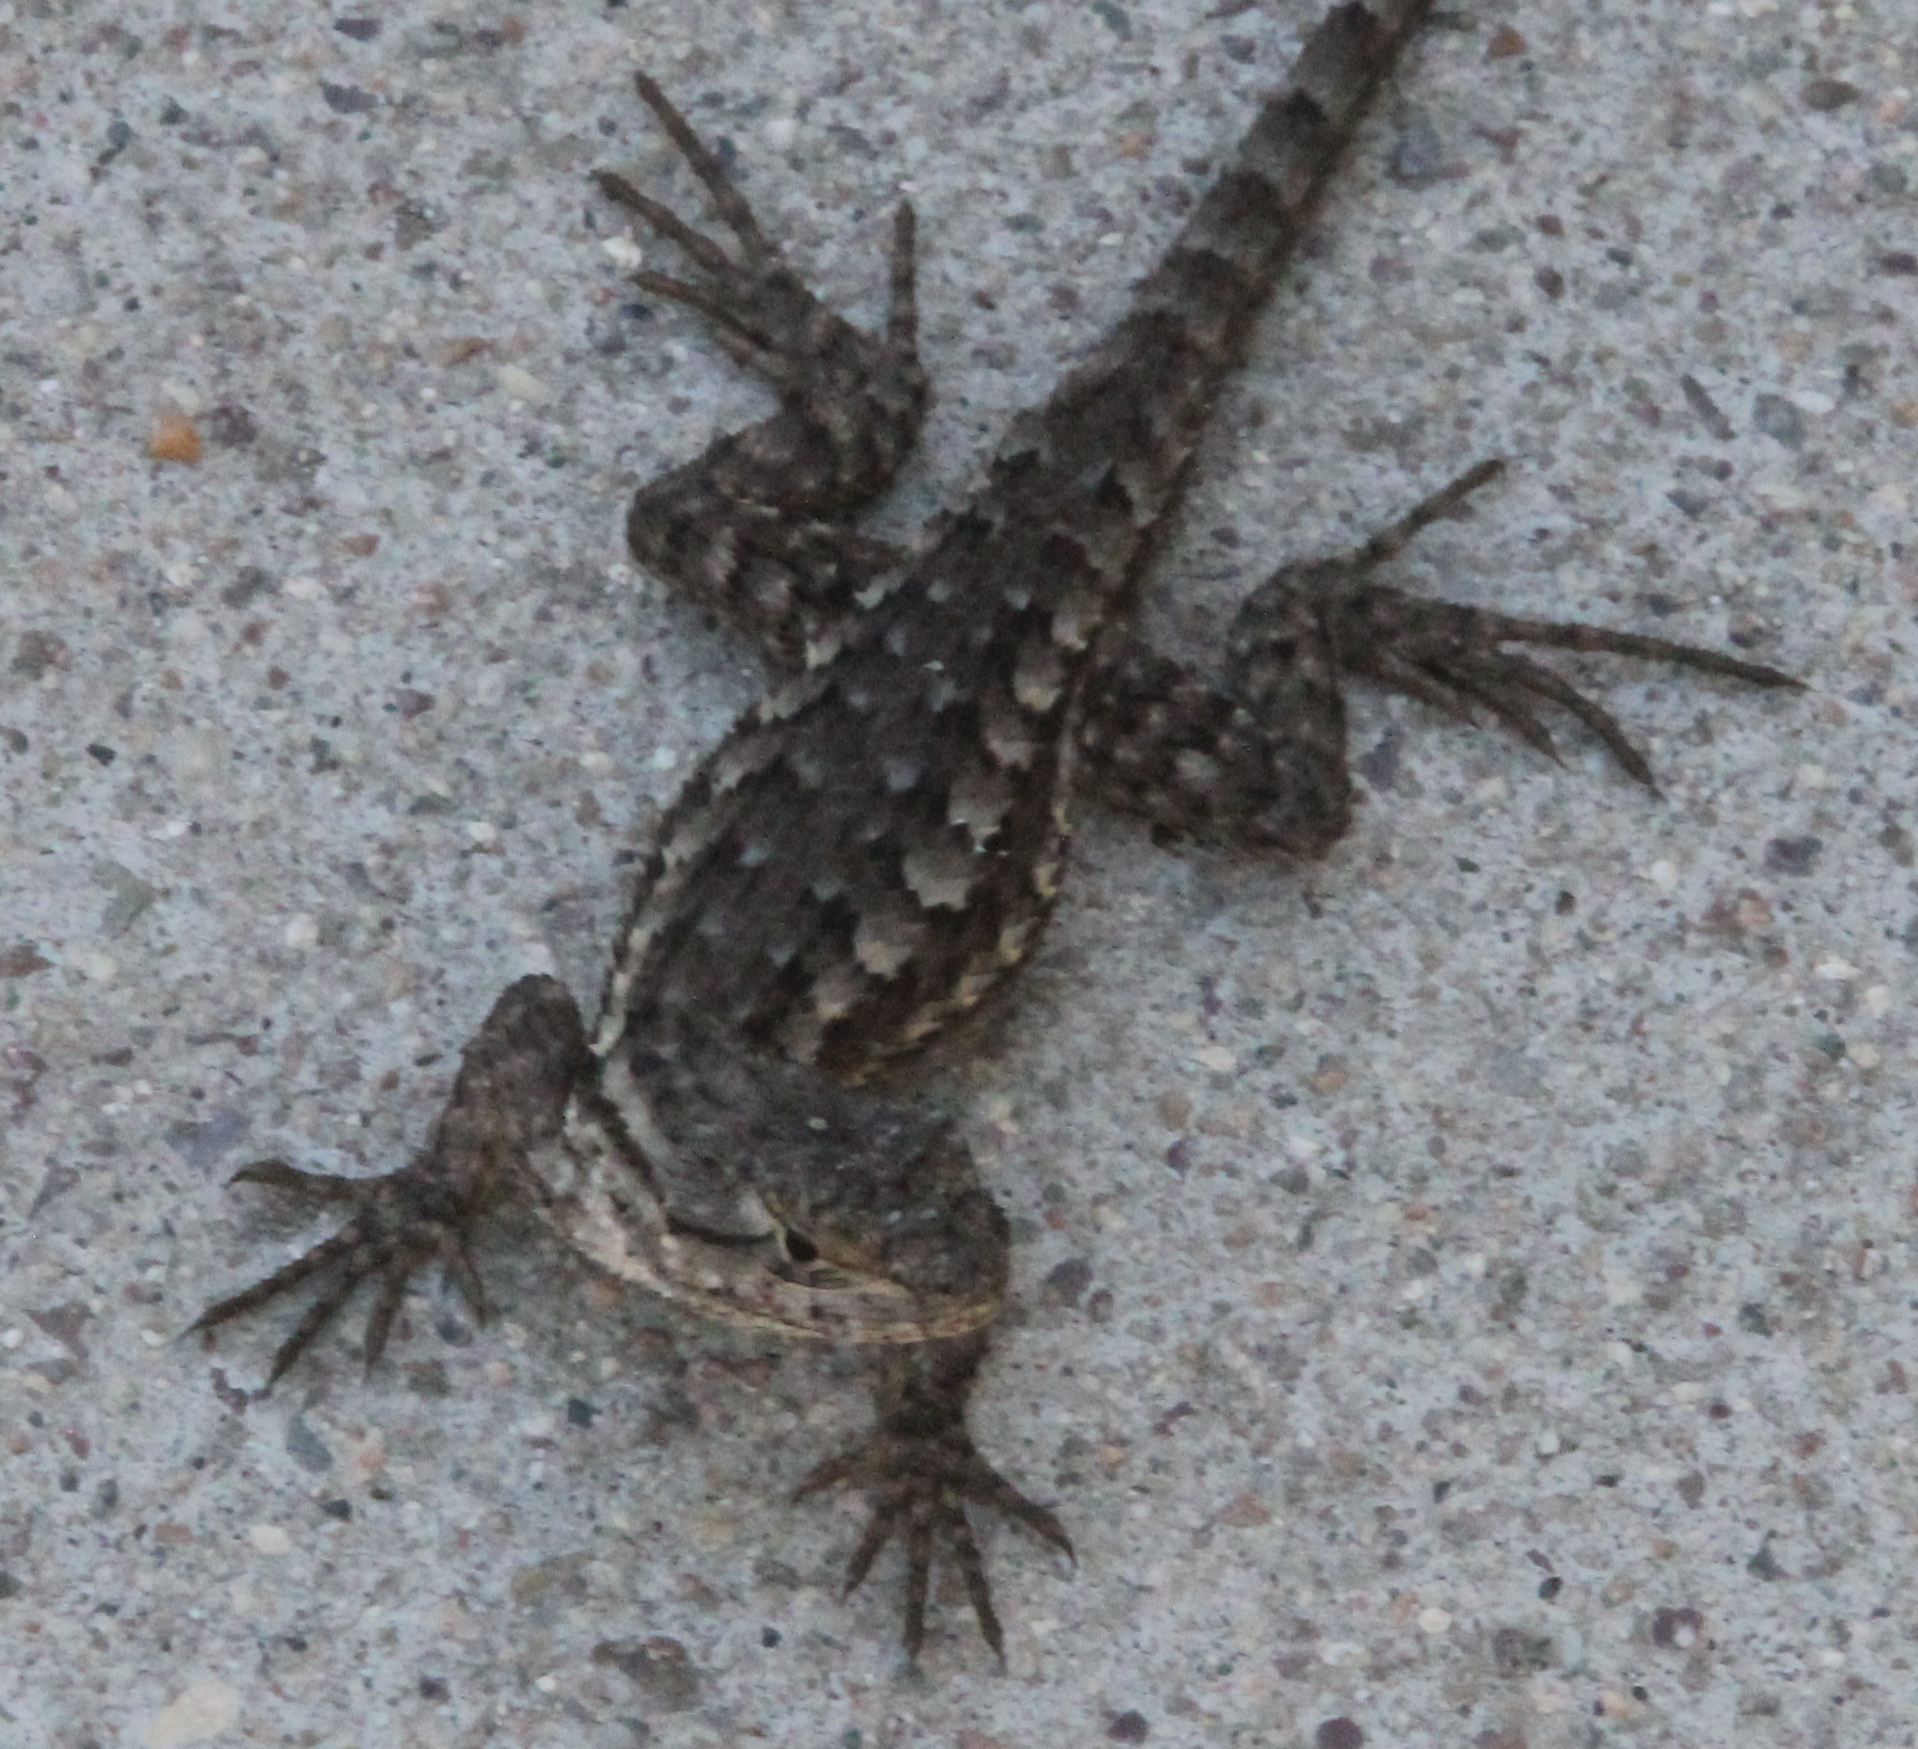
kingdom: Animalia
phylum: Chordata
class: Squamata
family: Phrynosomatidae
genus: Sceloporus
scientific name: Sceloporus occidentalis
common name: Western fence lizard
